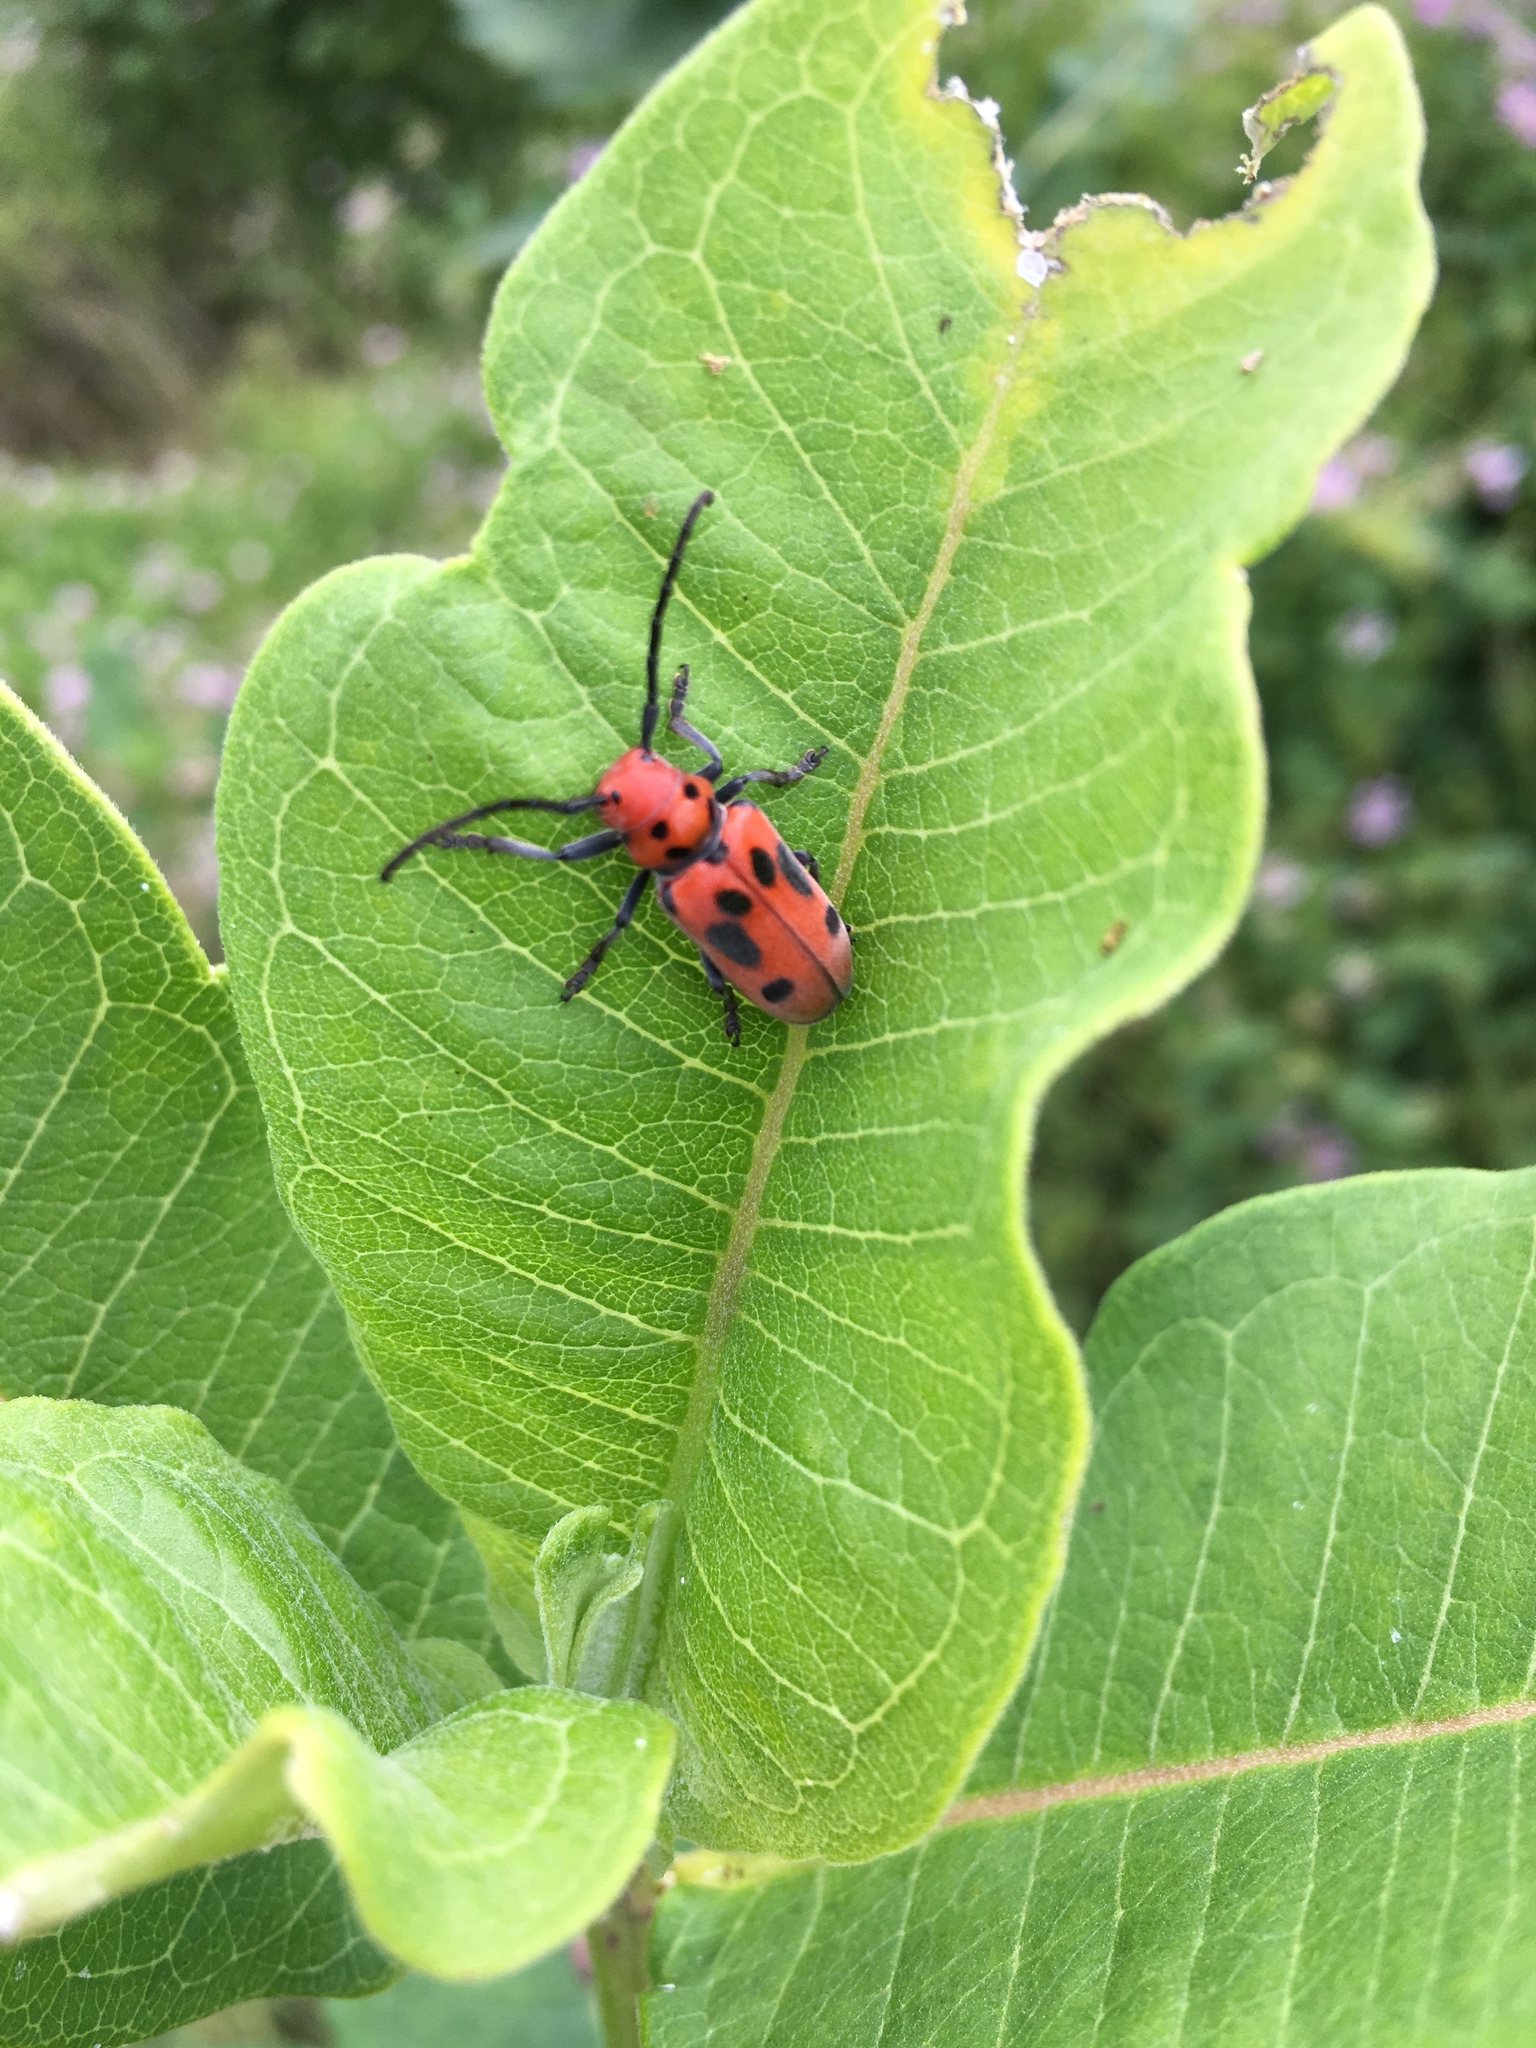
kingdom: Animalia
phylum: Arthropoda
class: Insecta
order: Coleoptera
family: Cerambycidae
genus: Tetraopes
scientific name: Tetraopes tetrophthalmus
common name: Red milkweed beetle
